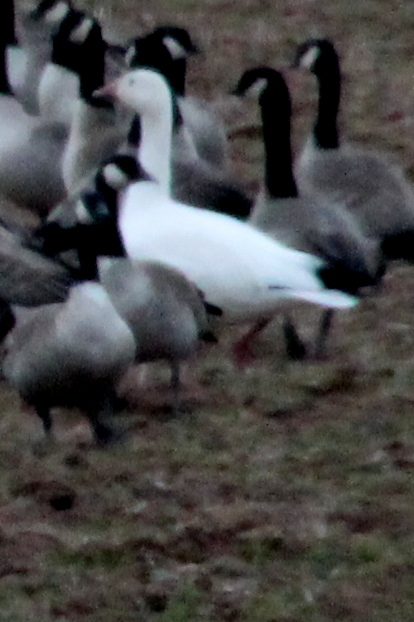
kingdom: Animalia
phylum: Chordata
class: Aves
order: Anseriformes
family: Anatidae
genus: Anser
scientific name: Anser caerulescens
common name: Snow goose
